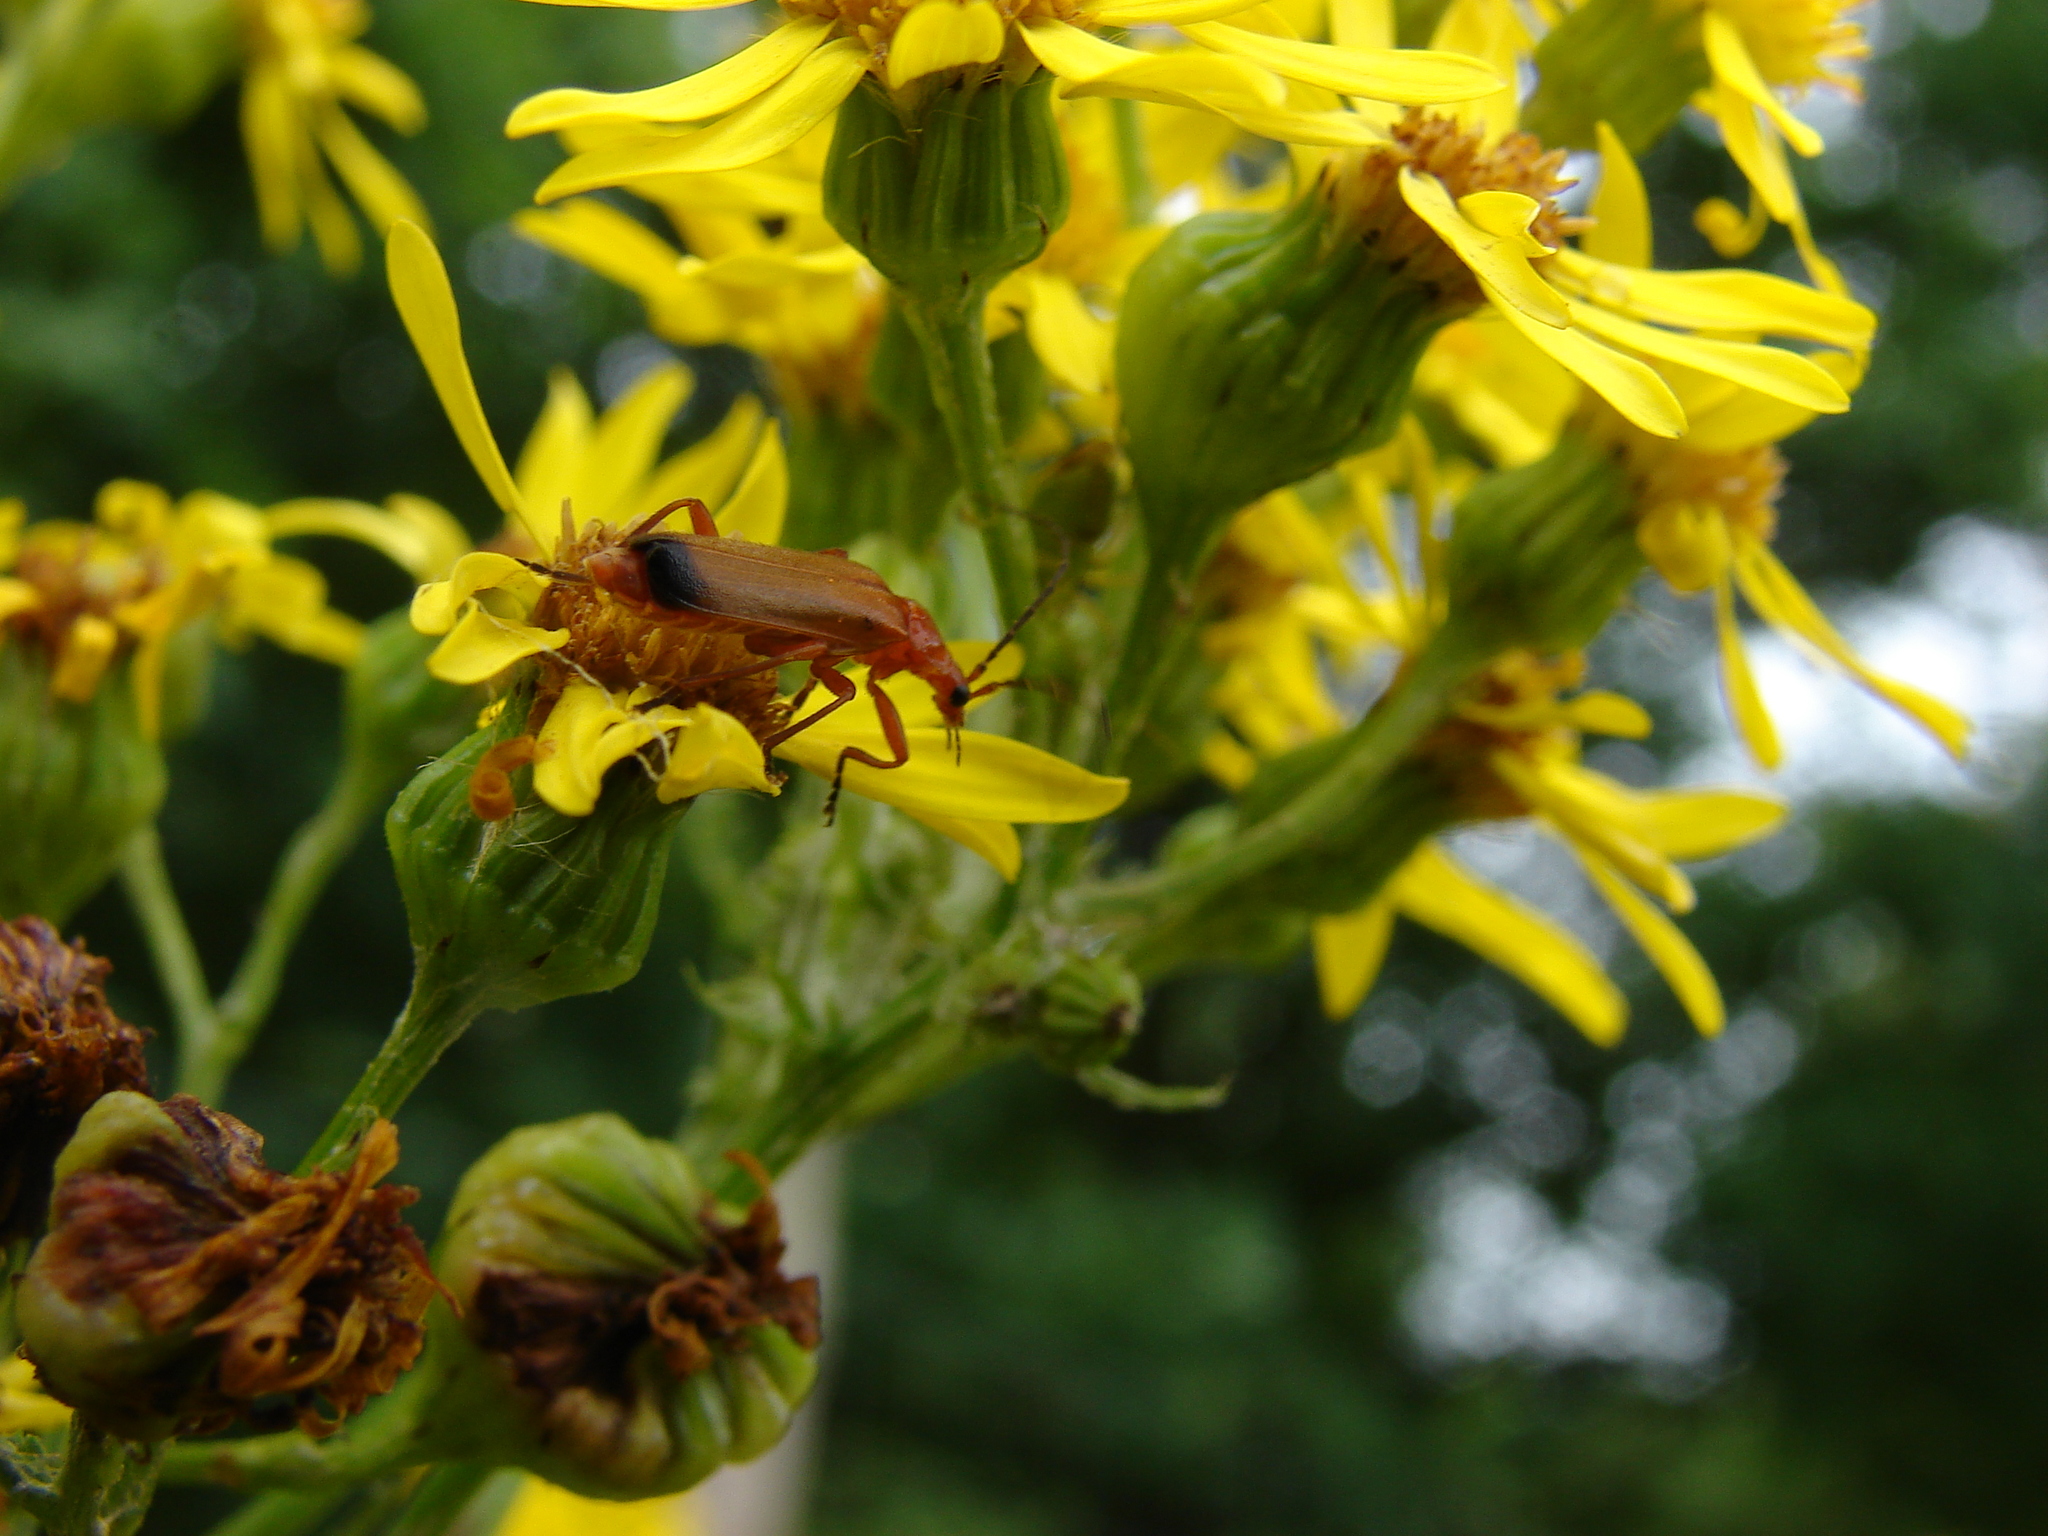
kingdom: Animalia
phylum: Arthropoda
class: Insecta
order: Coleoptera
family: Cantharidae
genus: Rhagonycha
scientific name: Rhagonycha fulva
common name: Common red soldier beetle
